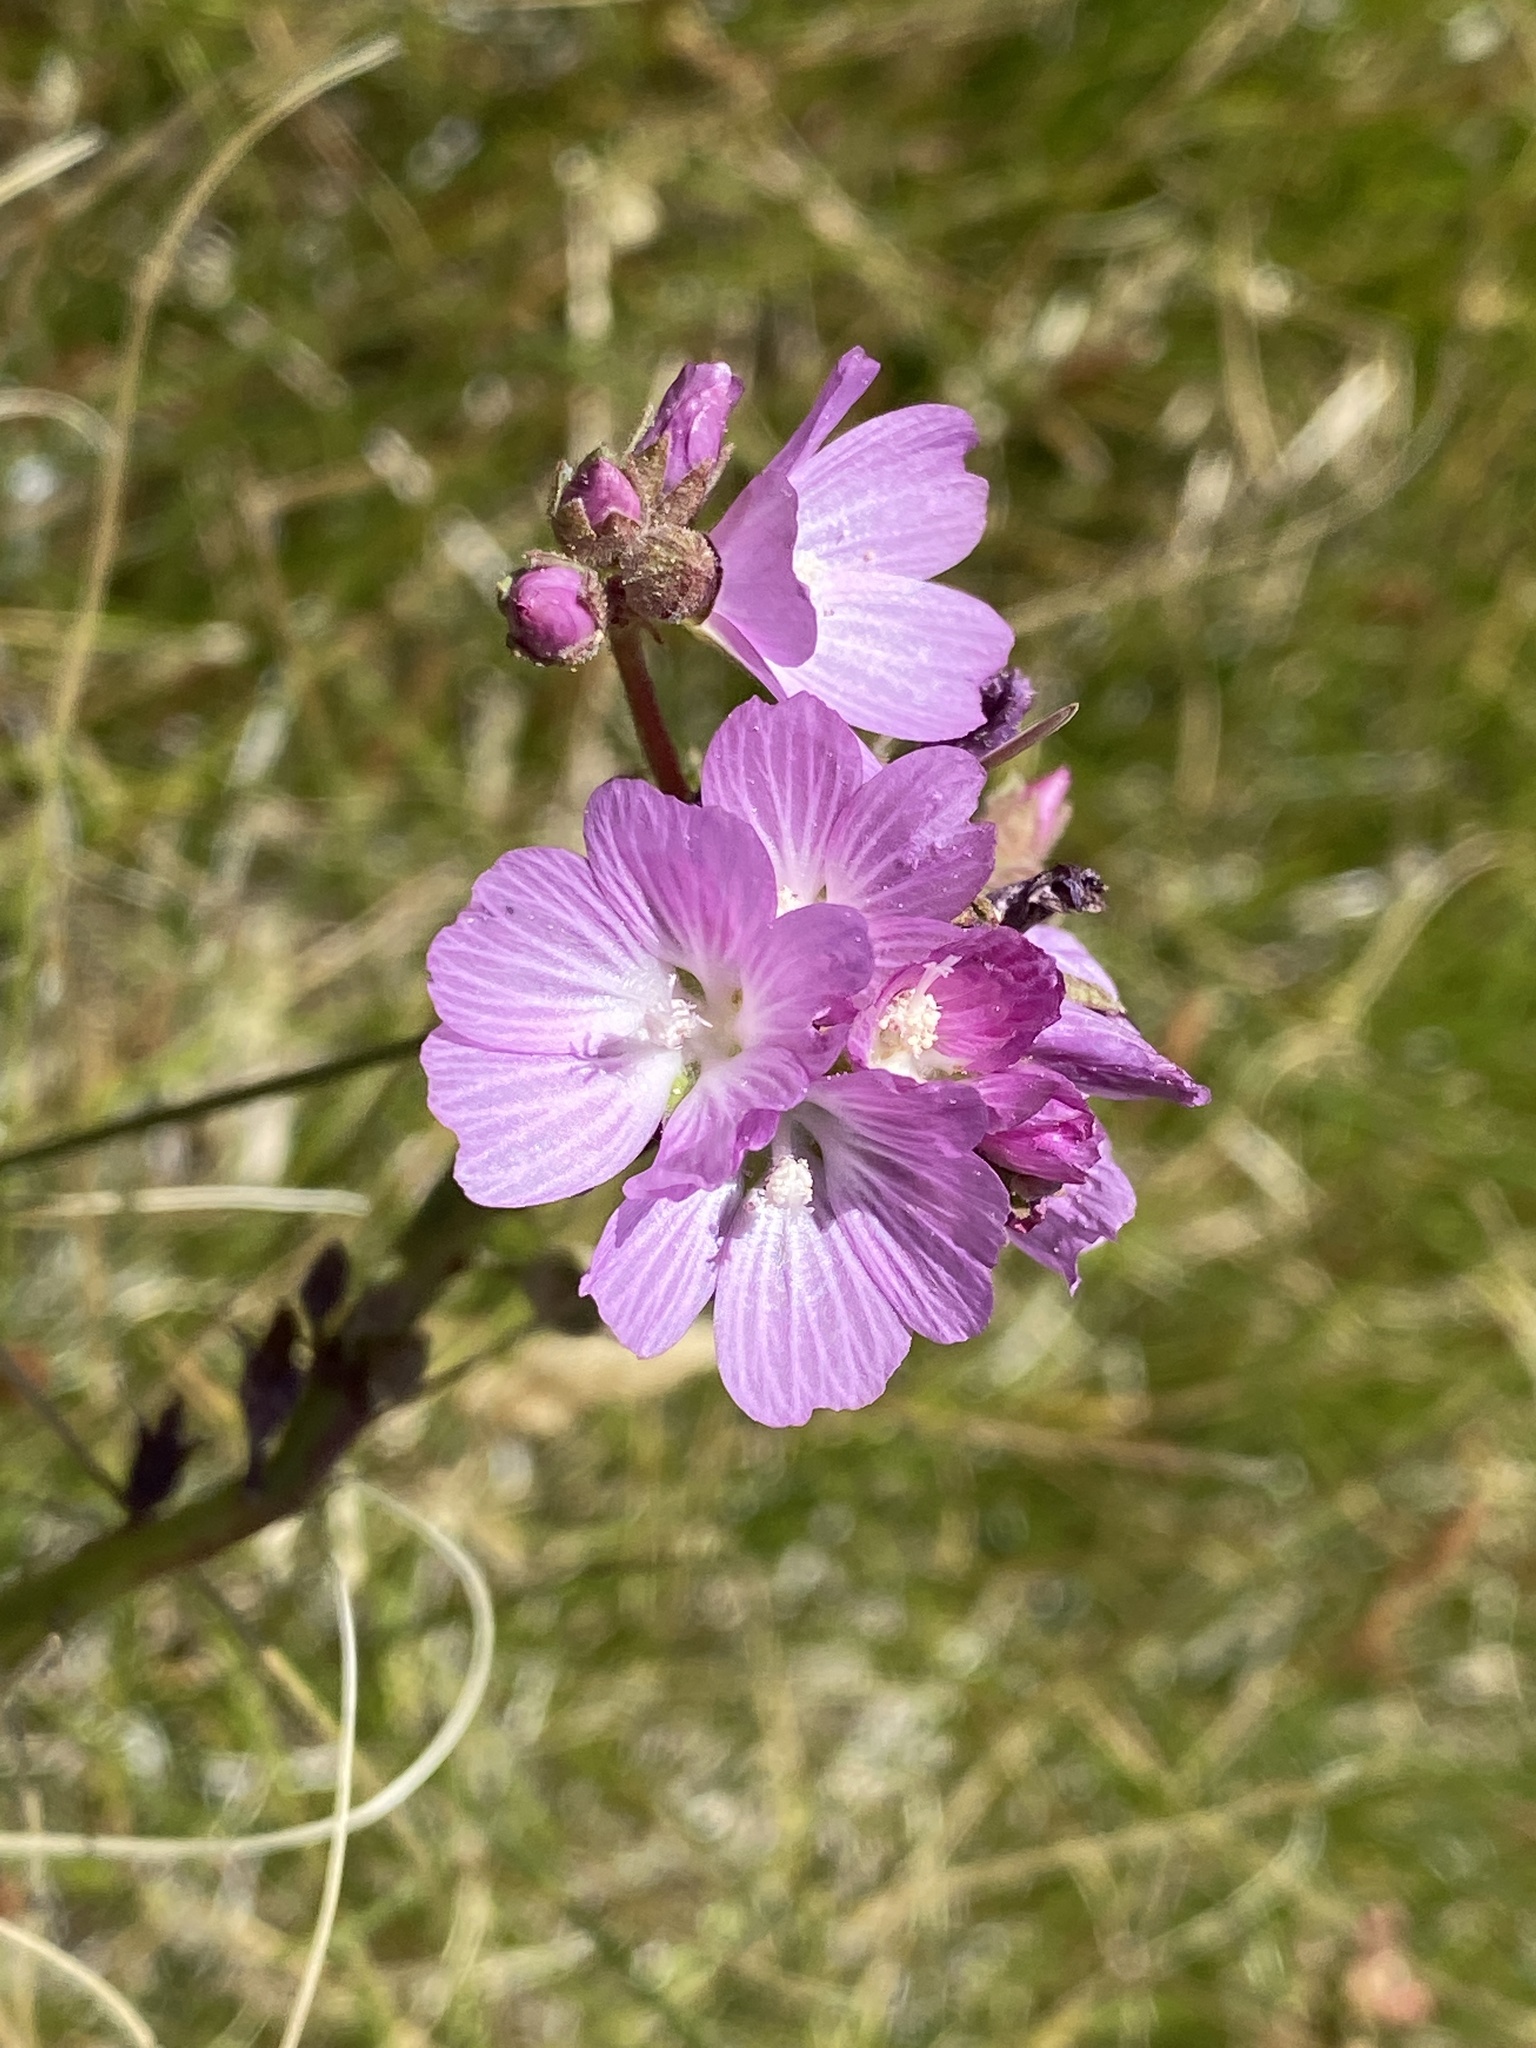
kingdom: Plantae
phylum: Tracheophyta
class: Magnoliopsida
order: Malvales
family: Malvaceae
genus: Sidalcea
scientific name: Sidalcea sparsifolia
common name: Southern checkerbloom
